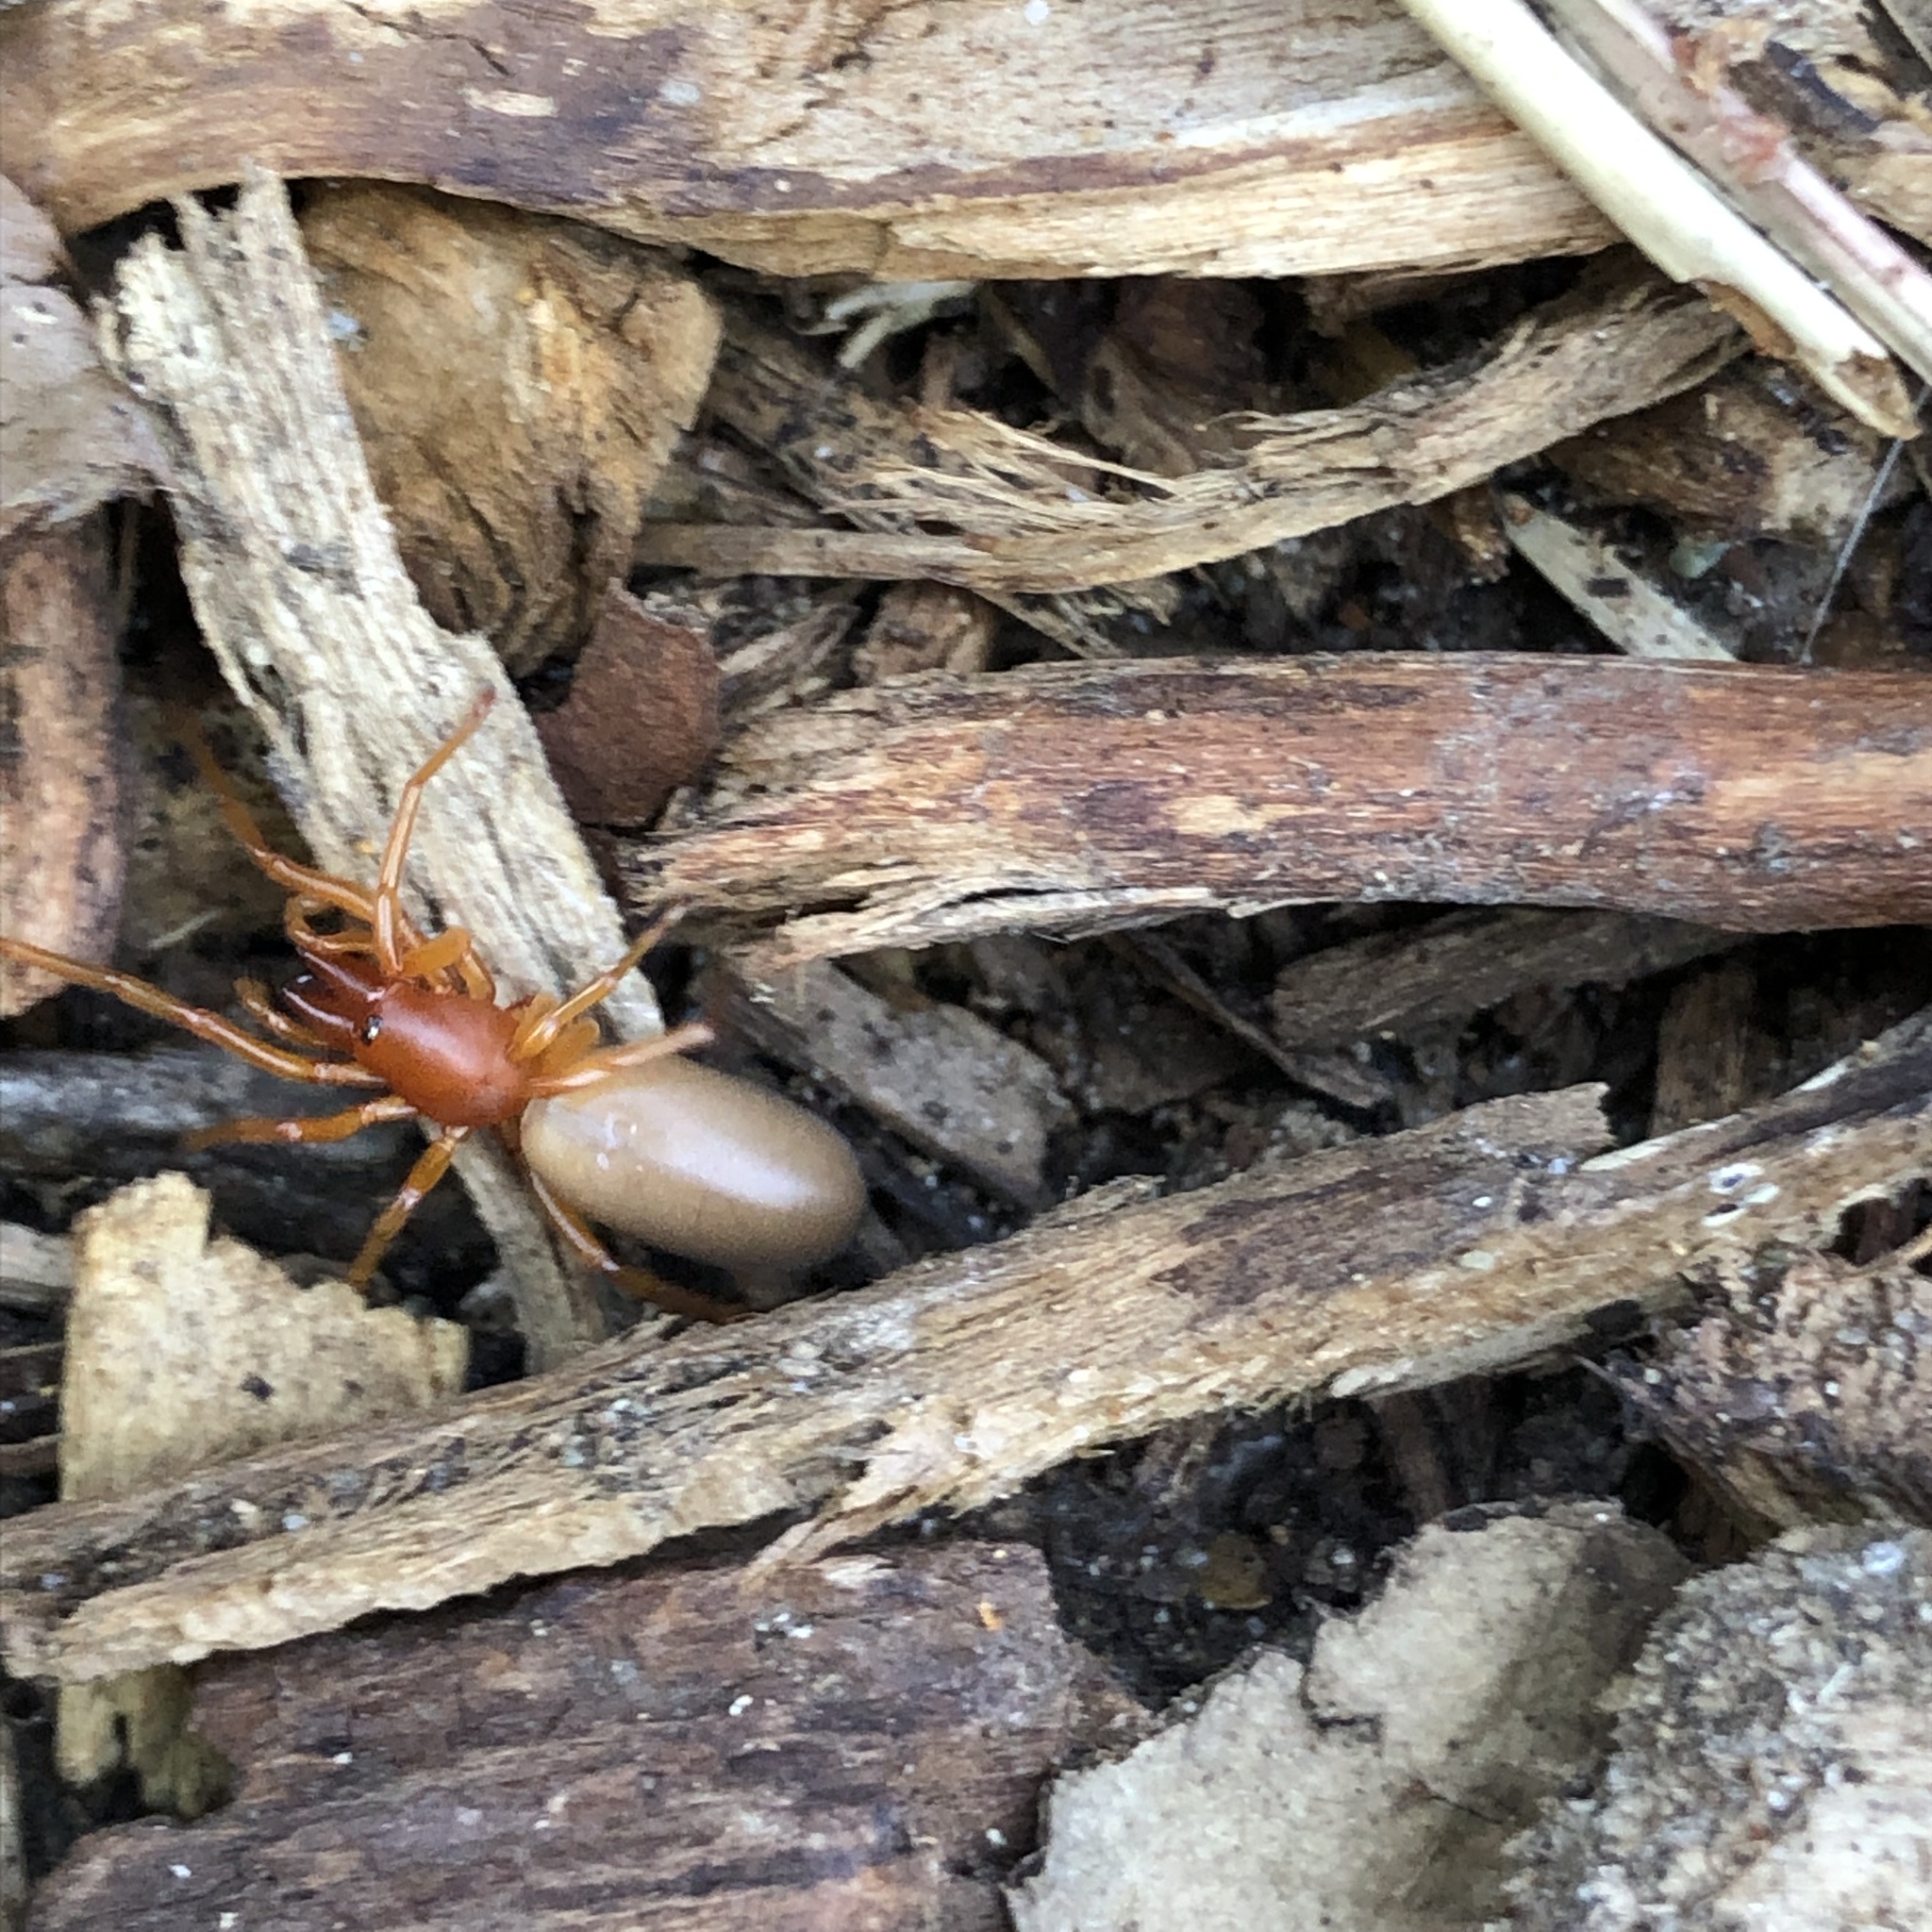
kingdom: Animalia
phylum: Arthropoda
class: Arachnida
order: Araneae
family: Dysderidae
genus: Dysdera
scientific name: Dysdera crocata
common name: Woodlouse spider
